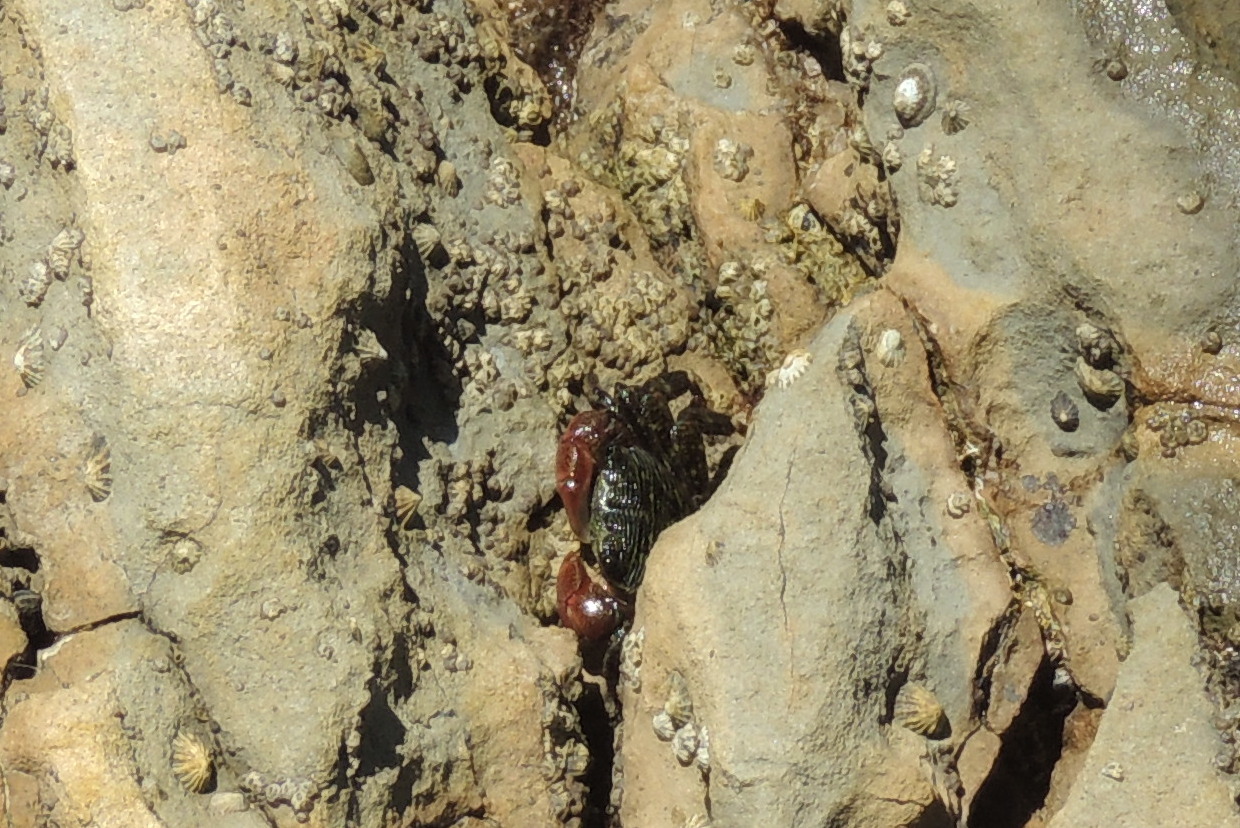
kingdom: Animalia
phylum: Arthropoda
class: Malacostraca
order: Decapoda
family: Grapsidae
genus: Pachygrapsus
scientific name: Pachygrapsus crassipes
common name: Striped shore crab
